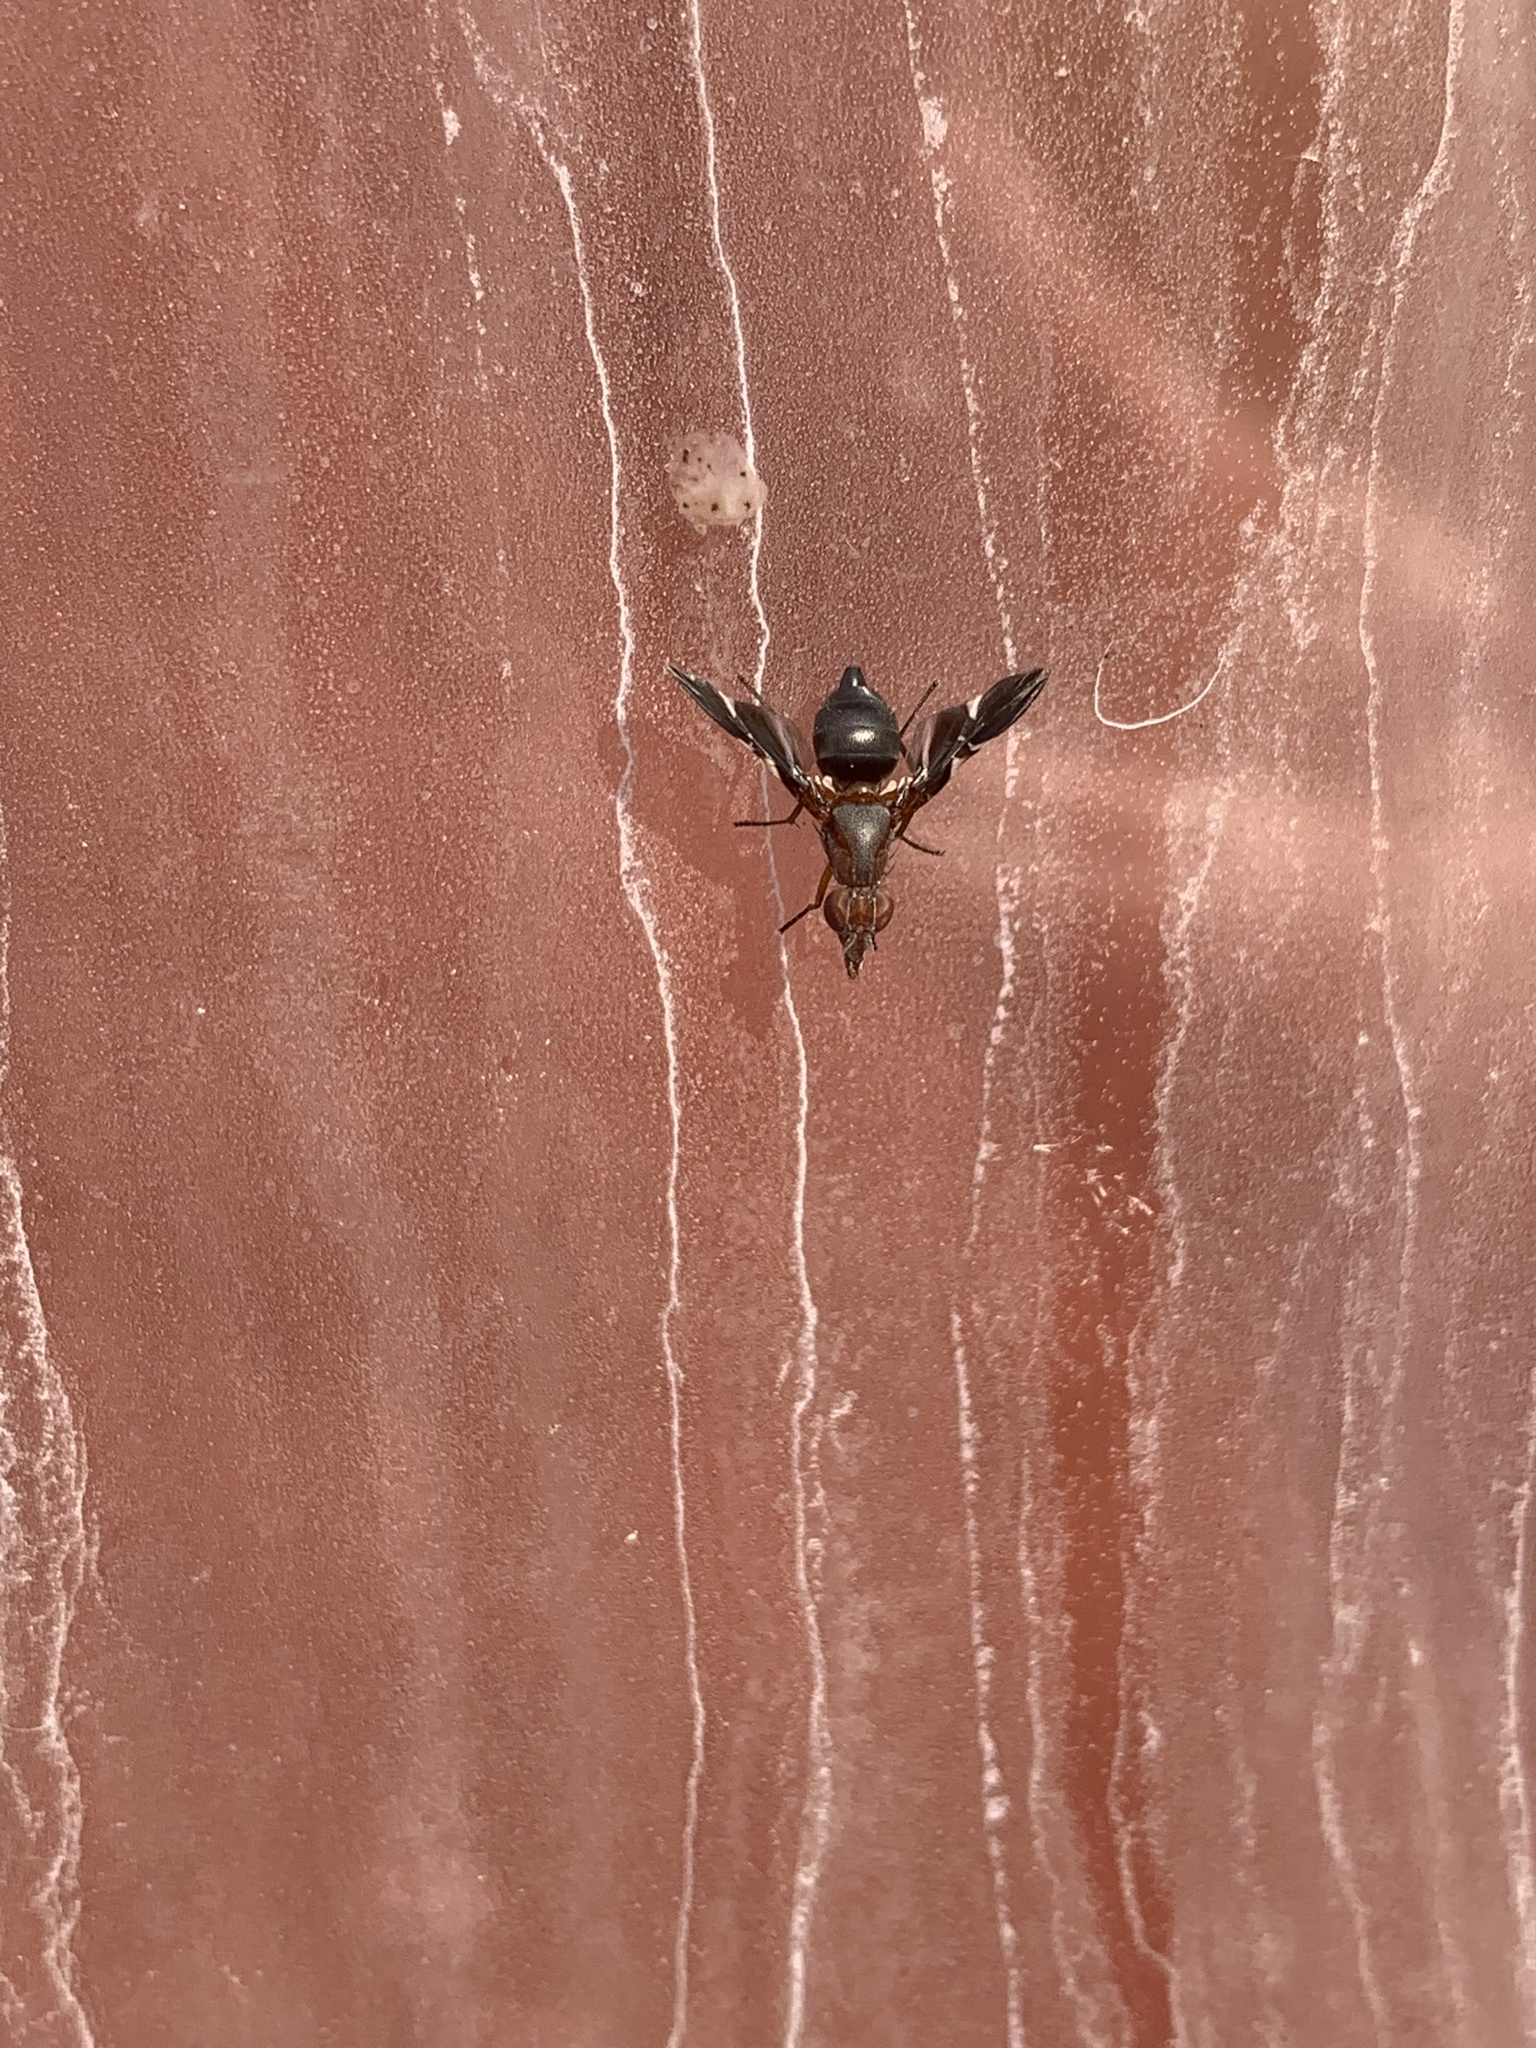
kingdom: Animalia
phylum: Arthropoda
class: Insecta
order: Diptera
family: Ulidiidae
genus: Delphinia
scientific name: Delphinia picta
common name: Common picture-winged fly
